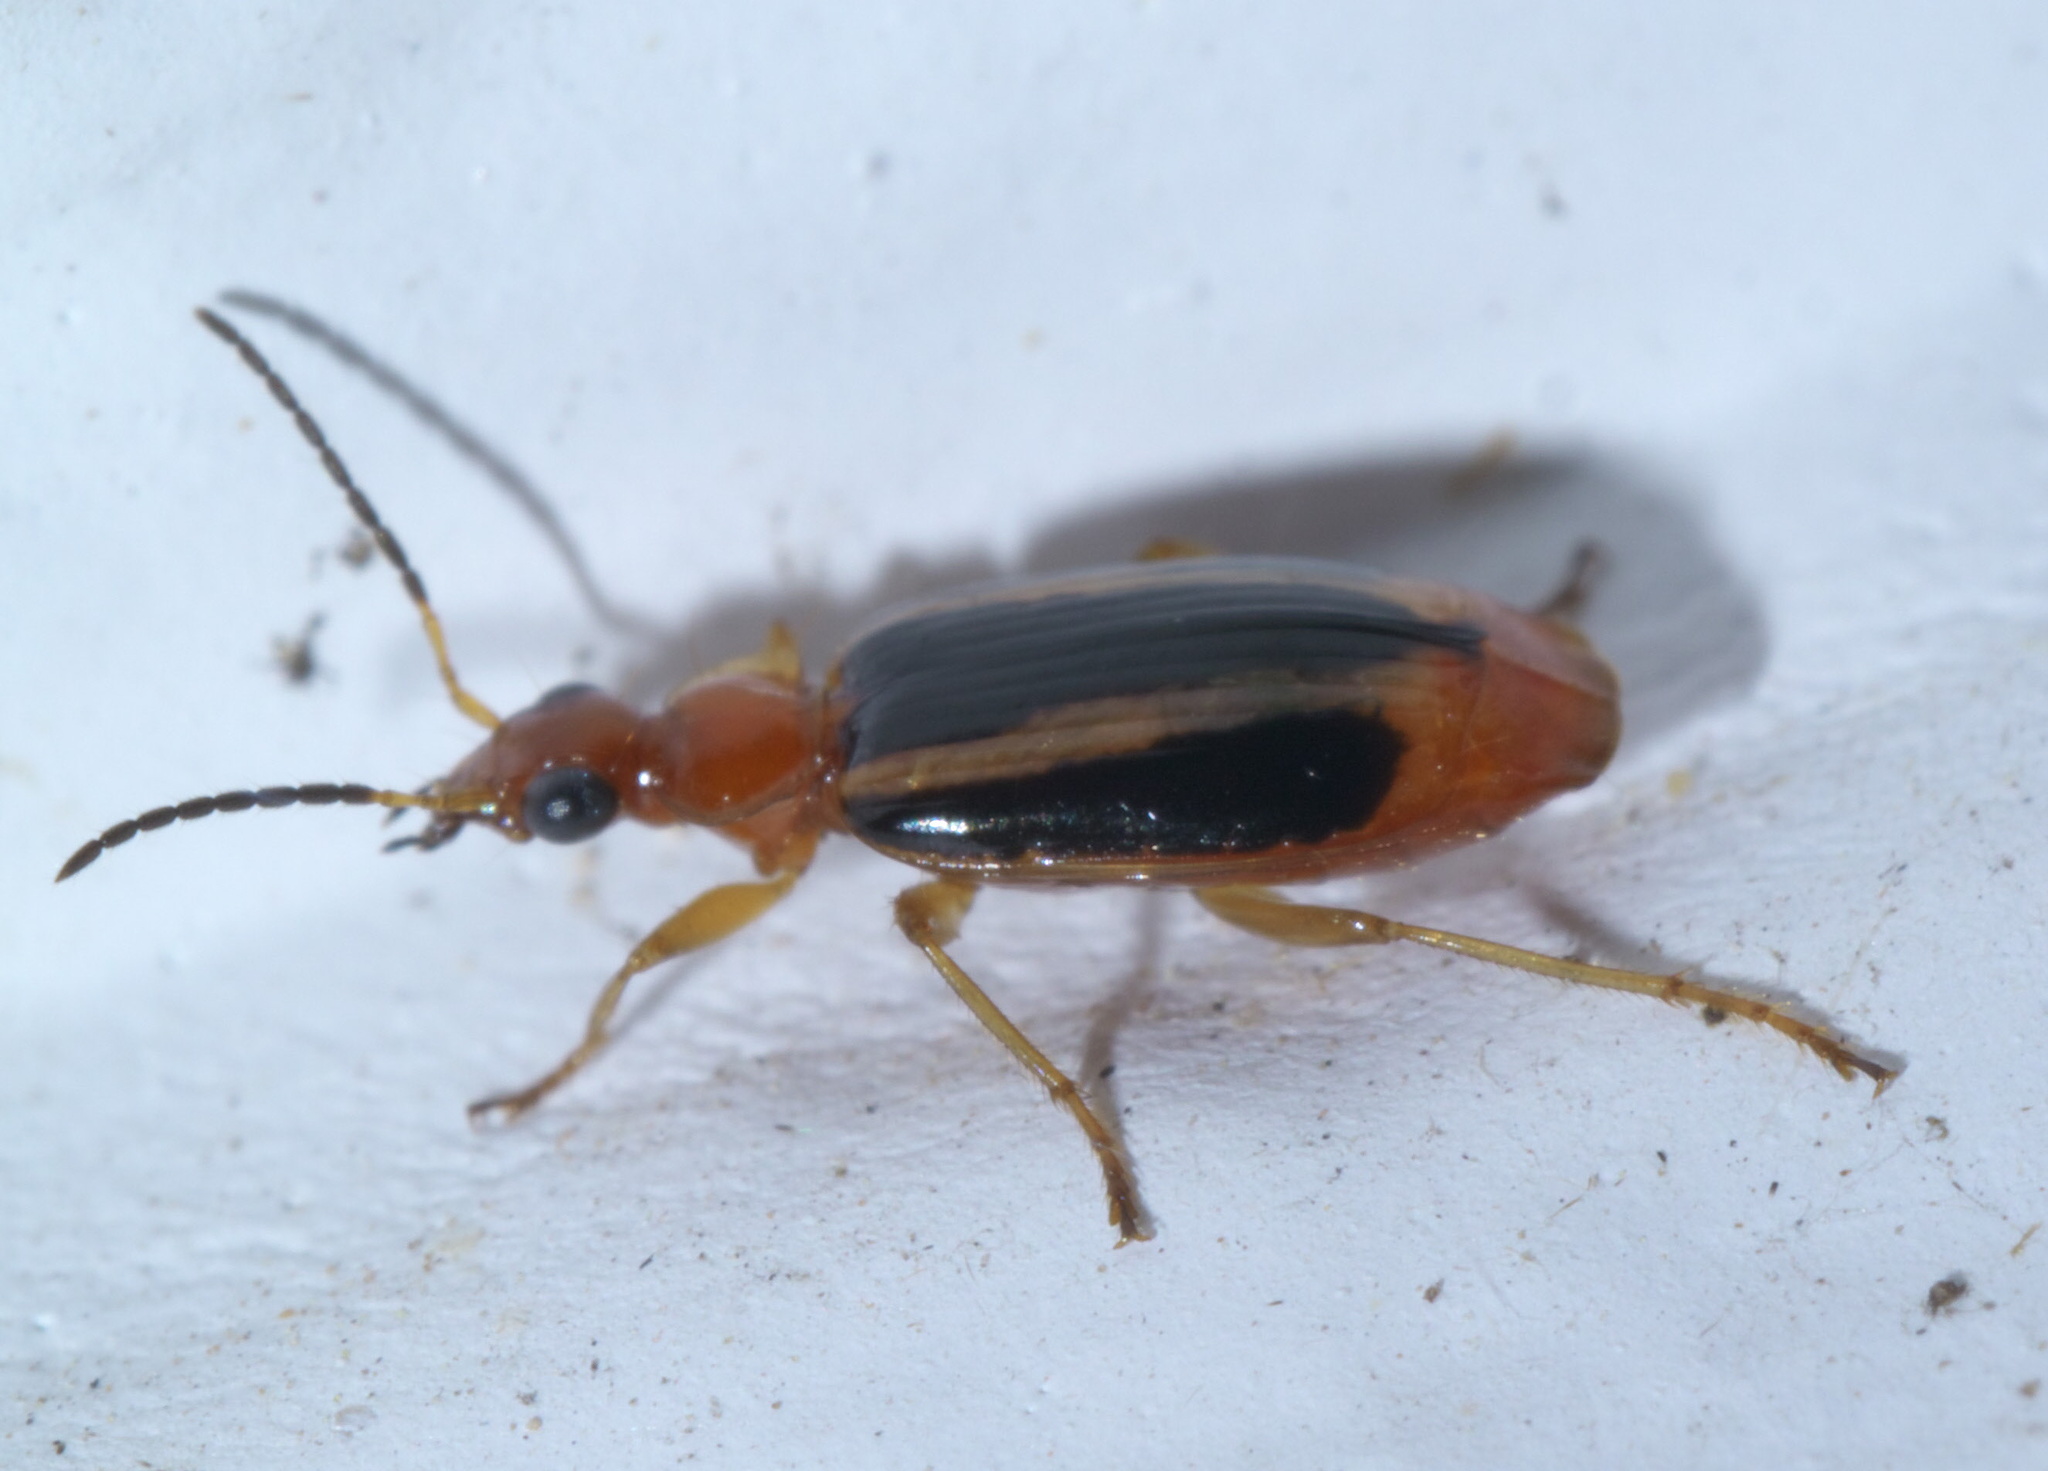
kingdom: Animalia
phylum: Arthropoda
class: Insecta
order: Coleoptera
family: Carabidae
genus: Lebia
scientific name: Lebia solea
